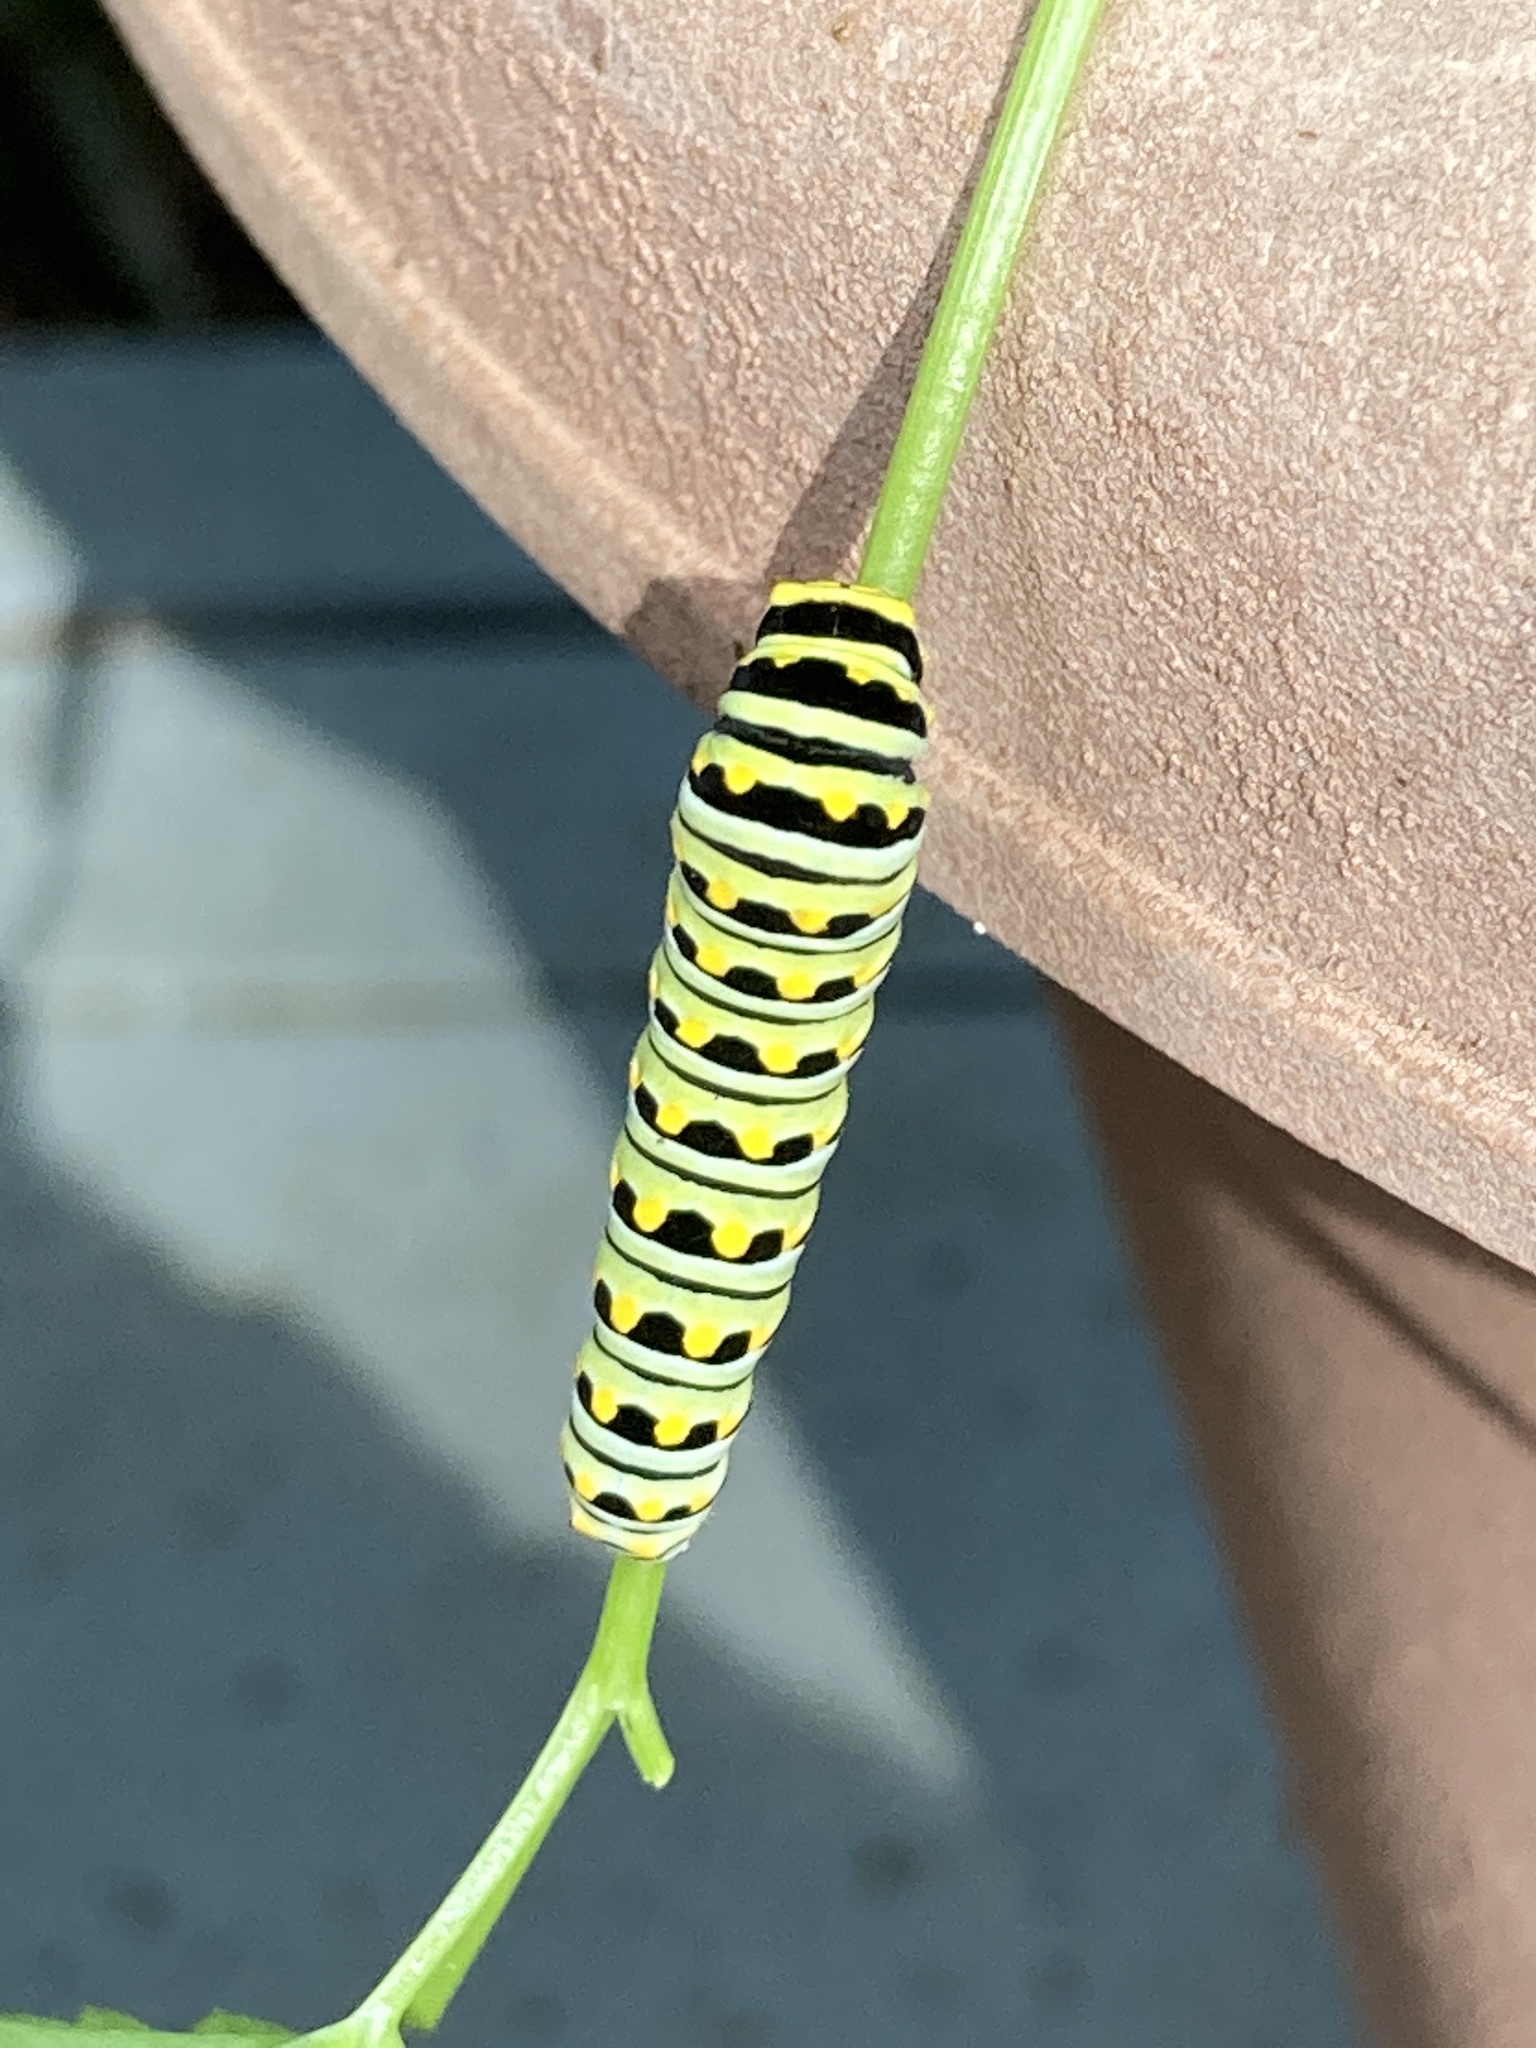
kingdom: Animalia
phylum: Arthropoda
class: Insecta
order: Lepidoptera
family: Papilionidae
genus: Papilio
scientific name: Papilio polyxenes
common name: Black swallowtail
